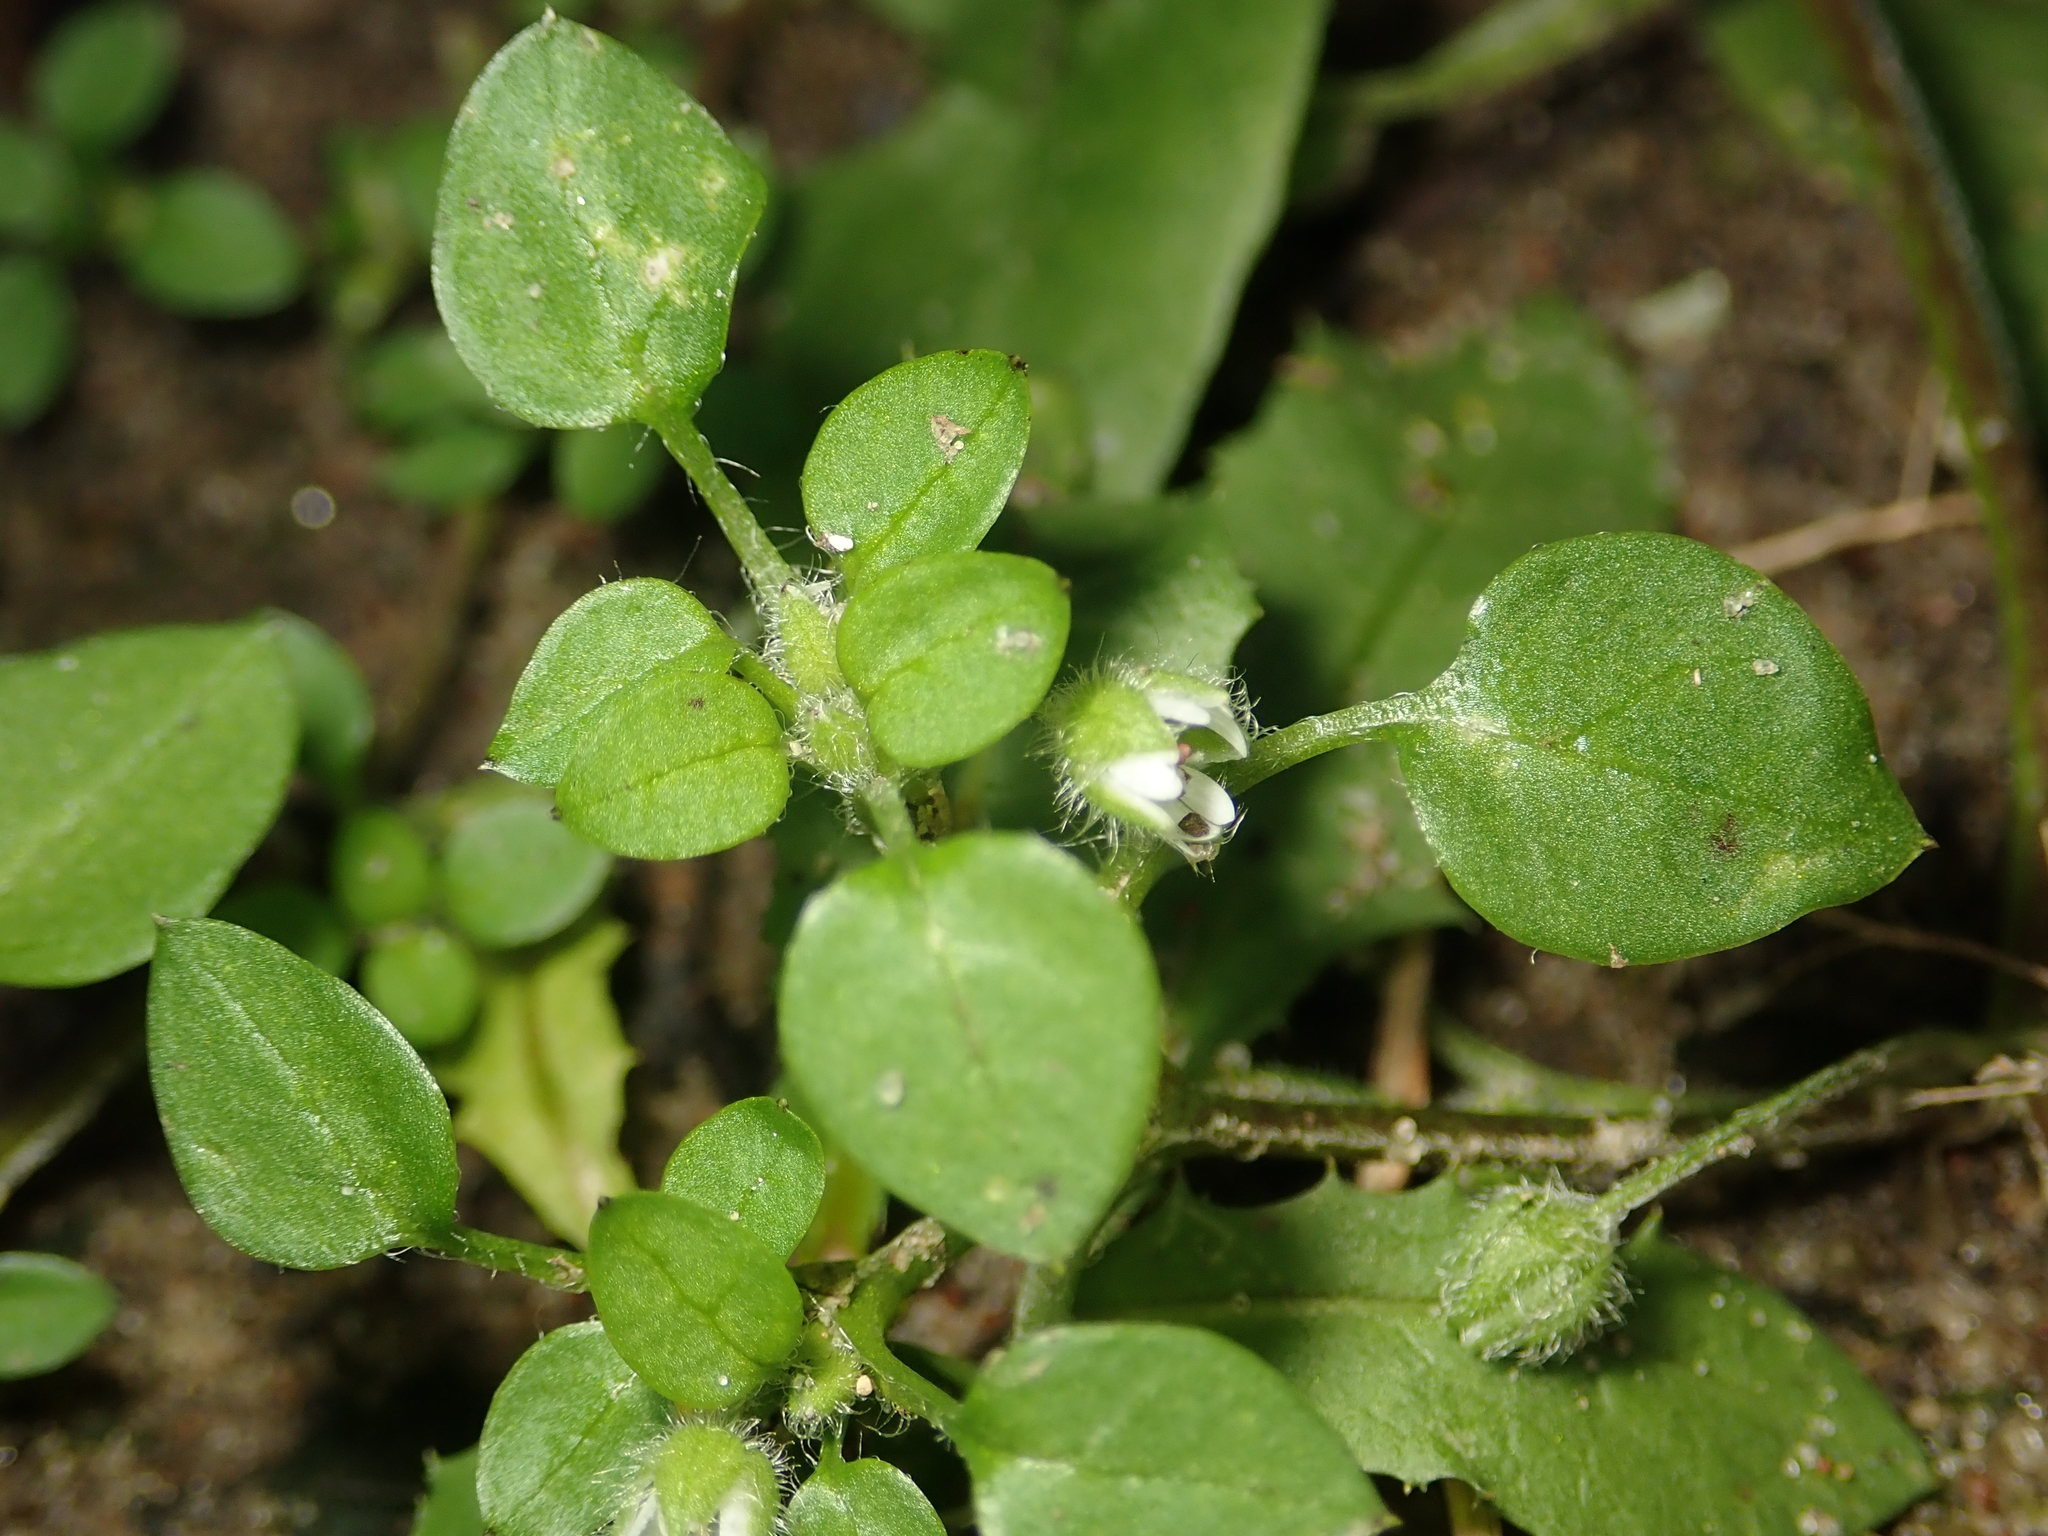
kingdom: Plantae
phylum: Tracheophyta
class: Magnoliopsida
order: Caryophyllales
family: Caryophyllaceae
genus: Stellaria
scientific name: Stellaria media
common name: Common chickweed
